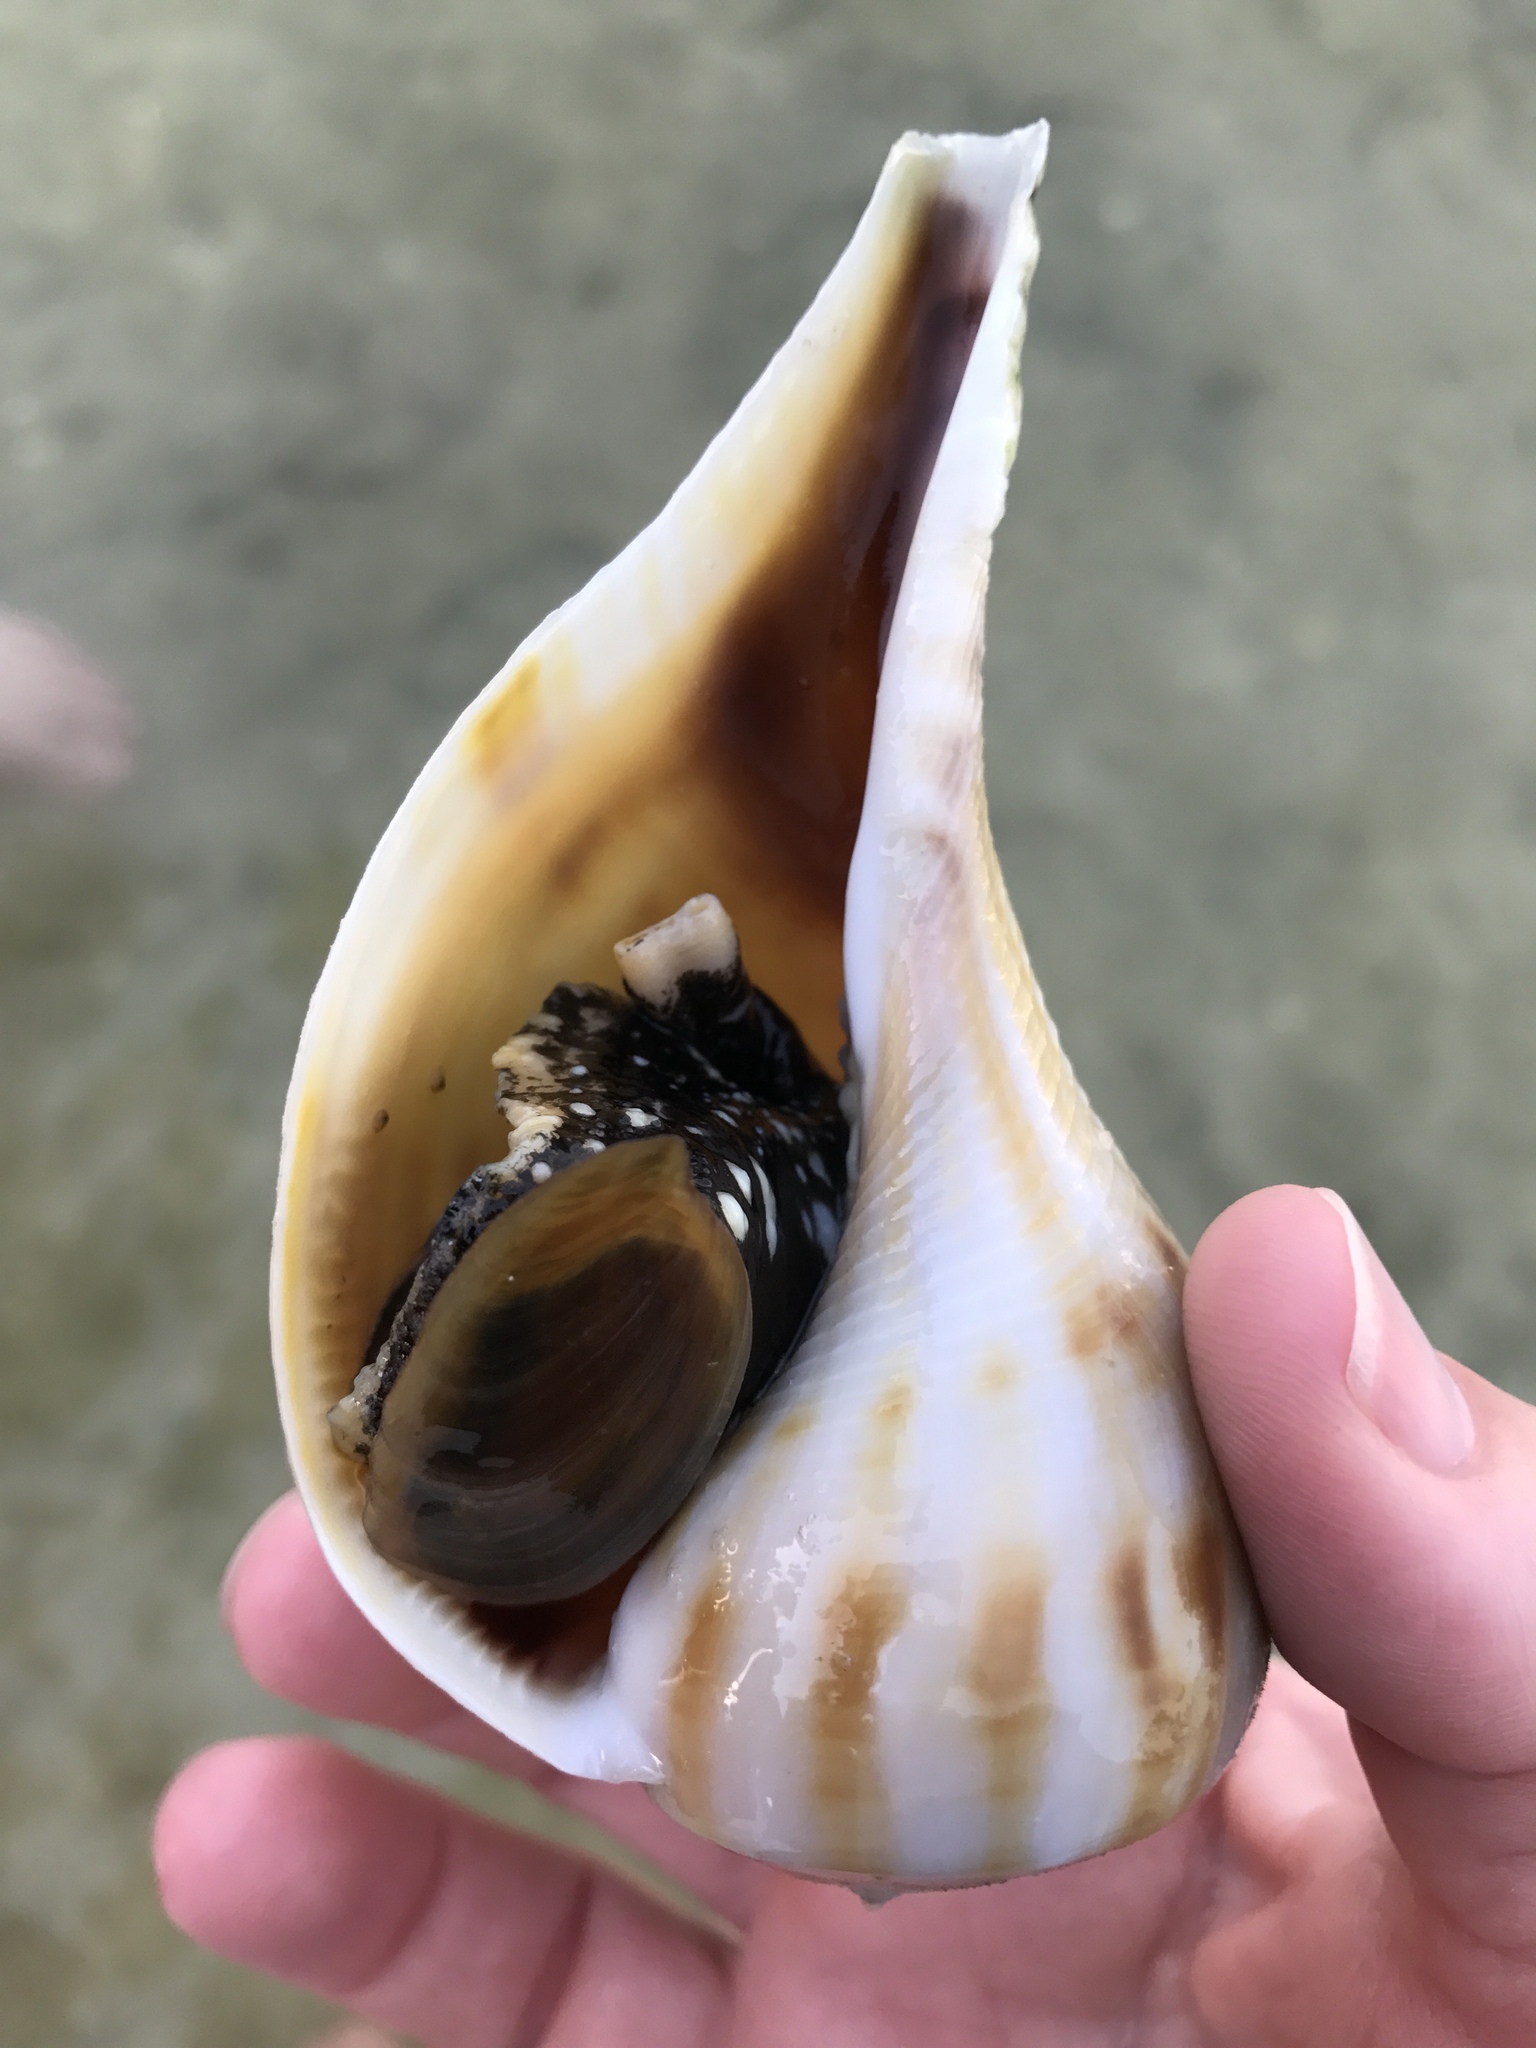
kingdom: Animalia
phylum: Mollusca
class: Gastropoda
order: Neogastropoda
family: Busyconidae
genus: Fulguropsis
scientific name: Fulguropsis pyruloides
